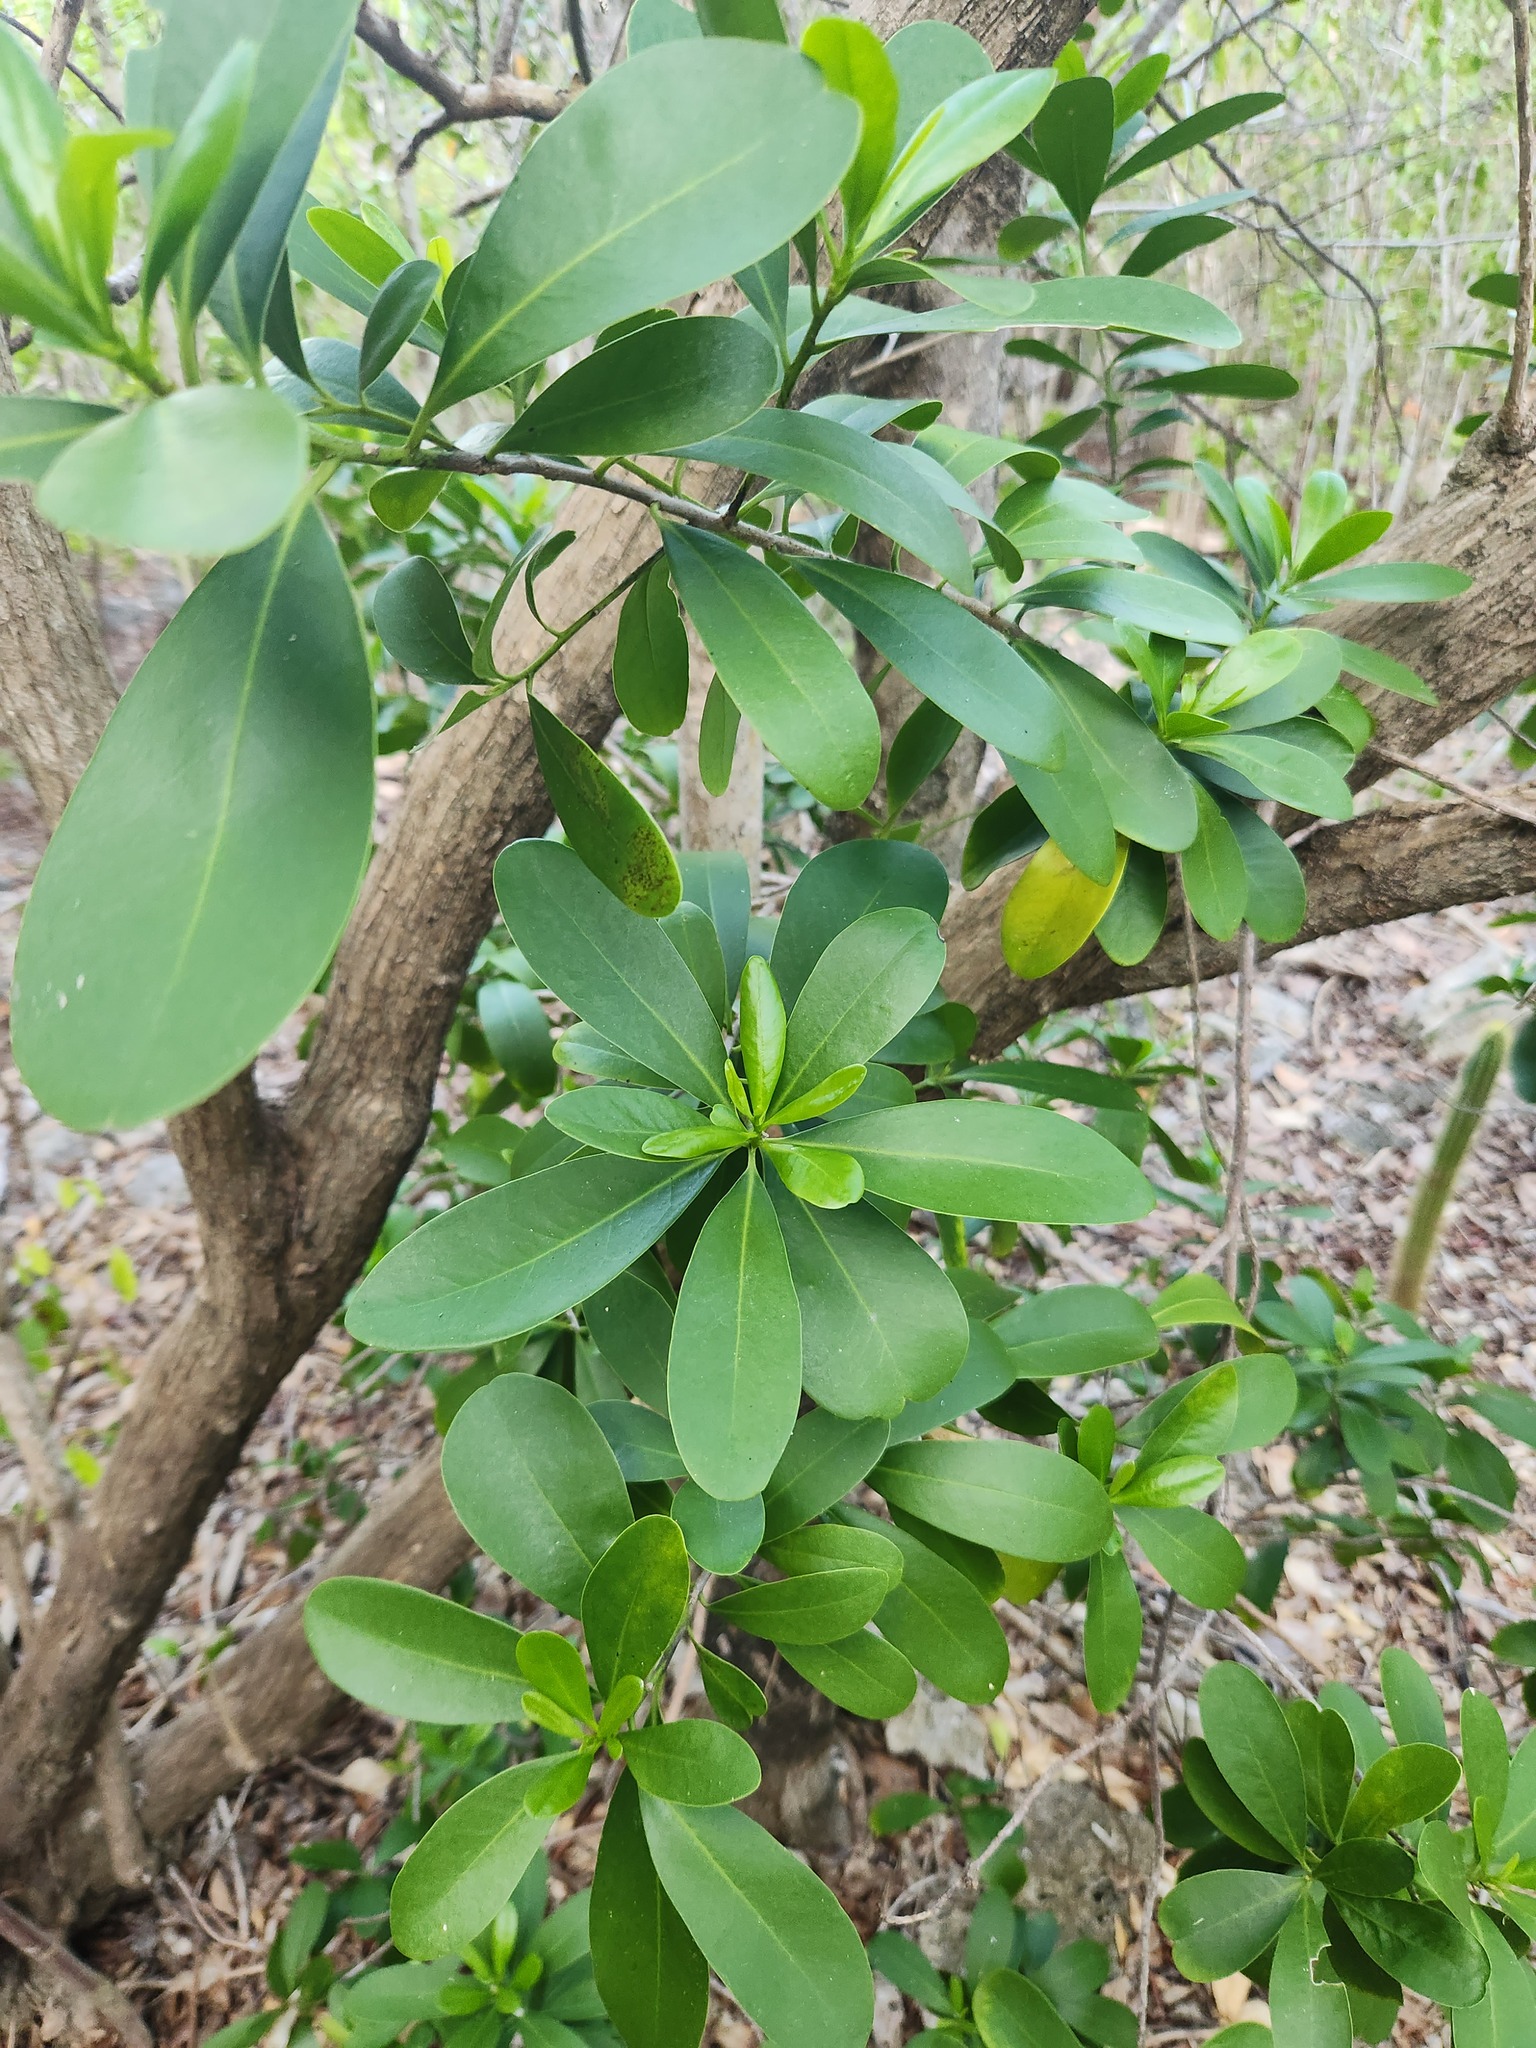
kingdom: Plantae
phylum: Tracheophyta
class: Magnoliopsida
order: Canellales
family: Canellaceae
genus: Canella
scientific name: Canella winterana
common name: Canella
